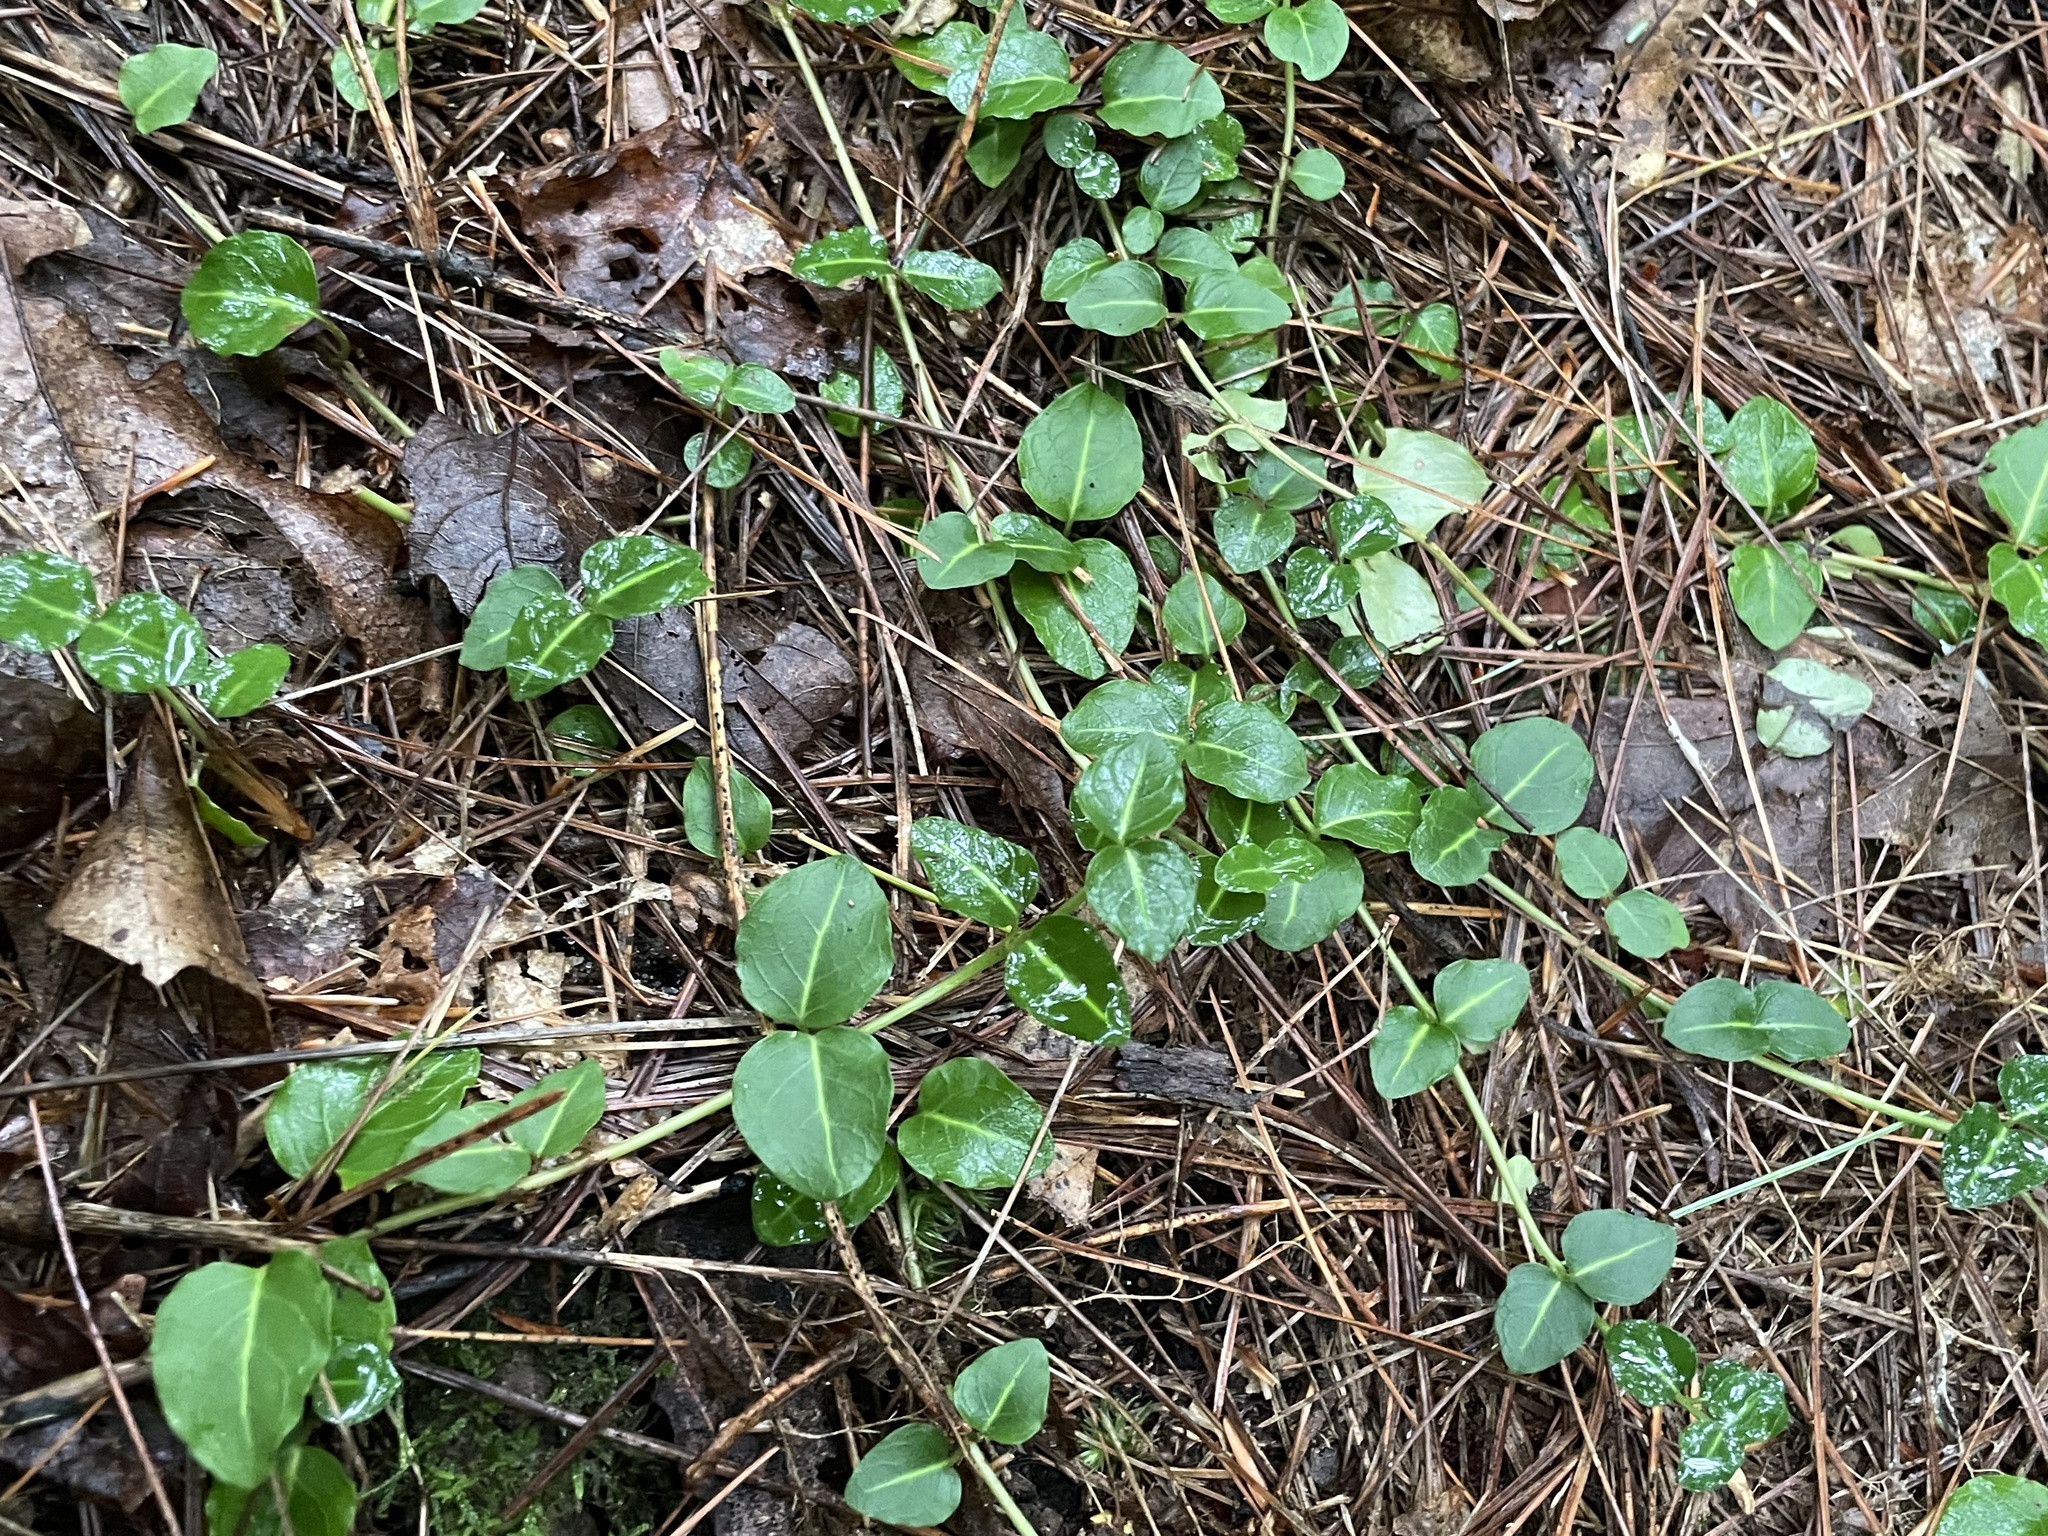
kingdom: Plantae
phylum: Tracheophyta
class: Magnoliopsida
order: Gentianales
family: Rubiaceae
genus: Mitchella
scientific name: Mitchella repens
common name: Partridge-berry
